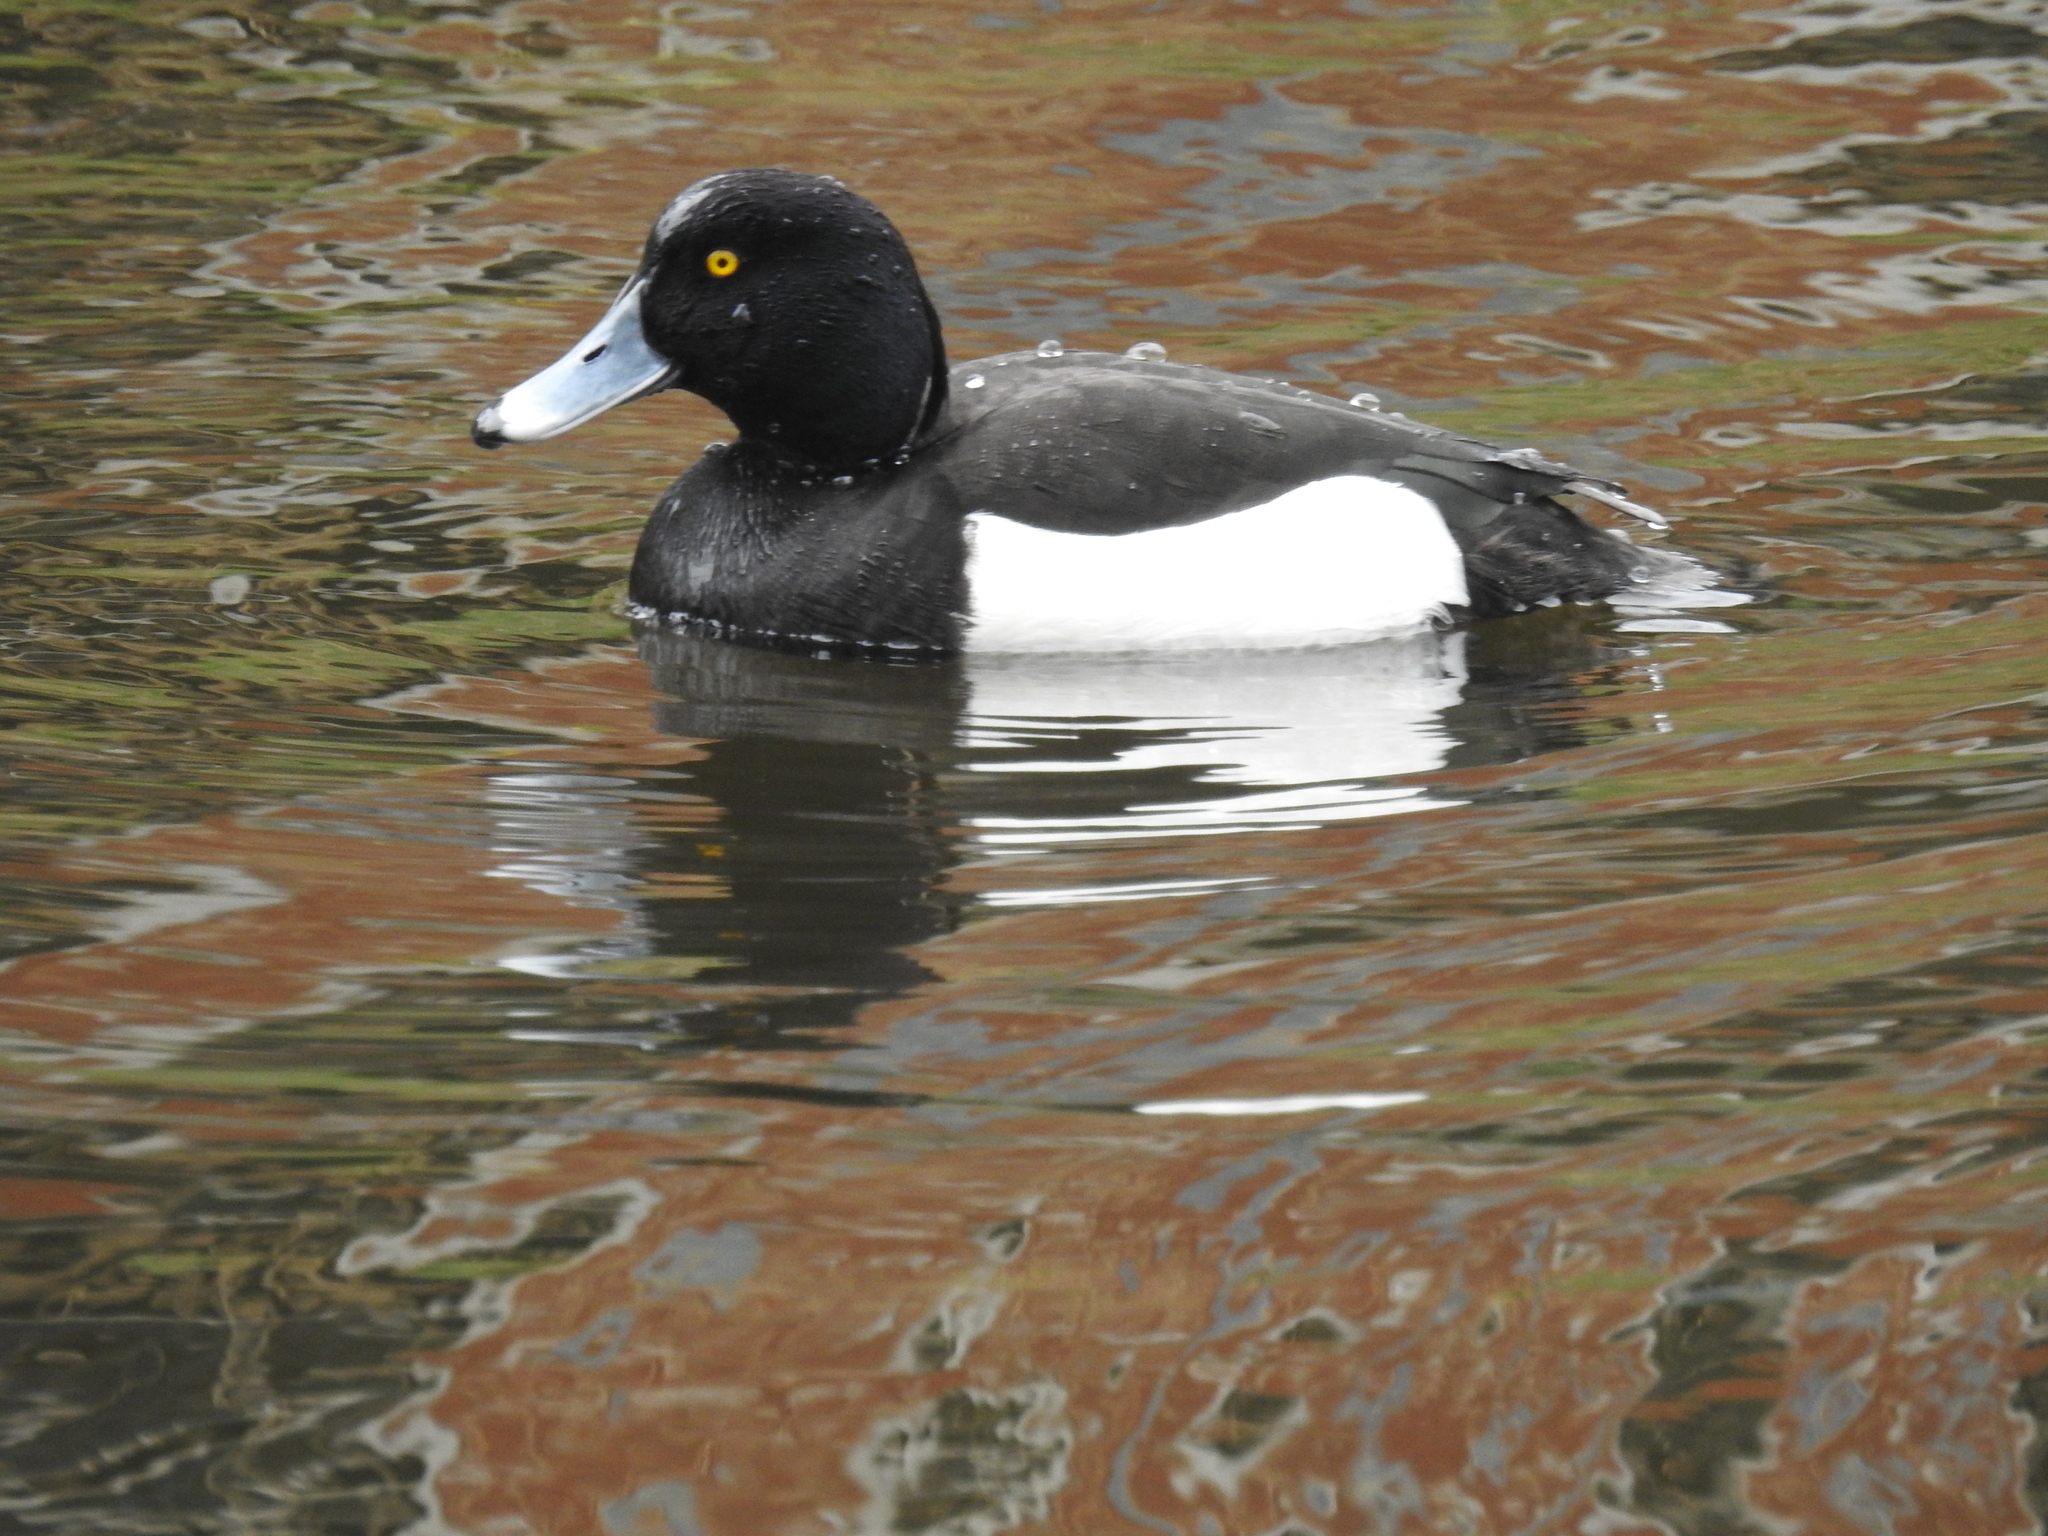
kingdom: Animalia
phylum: Chordata
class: Aves
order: Anseriformes
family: Anatidae
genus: Aythya
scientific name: Aythya fuligula
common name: Tufted duck
